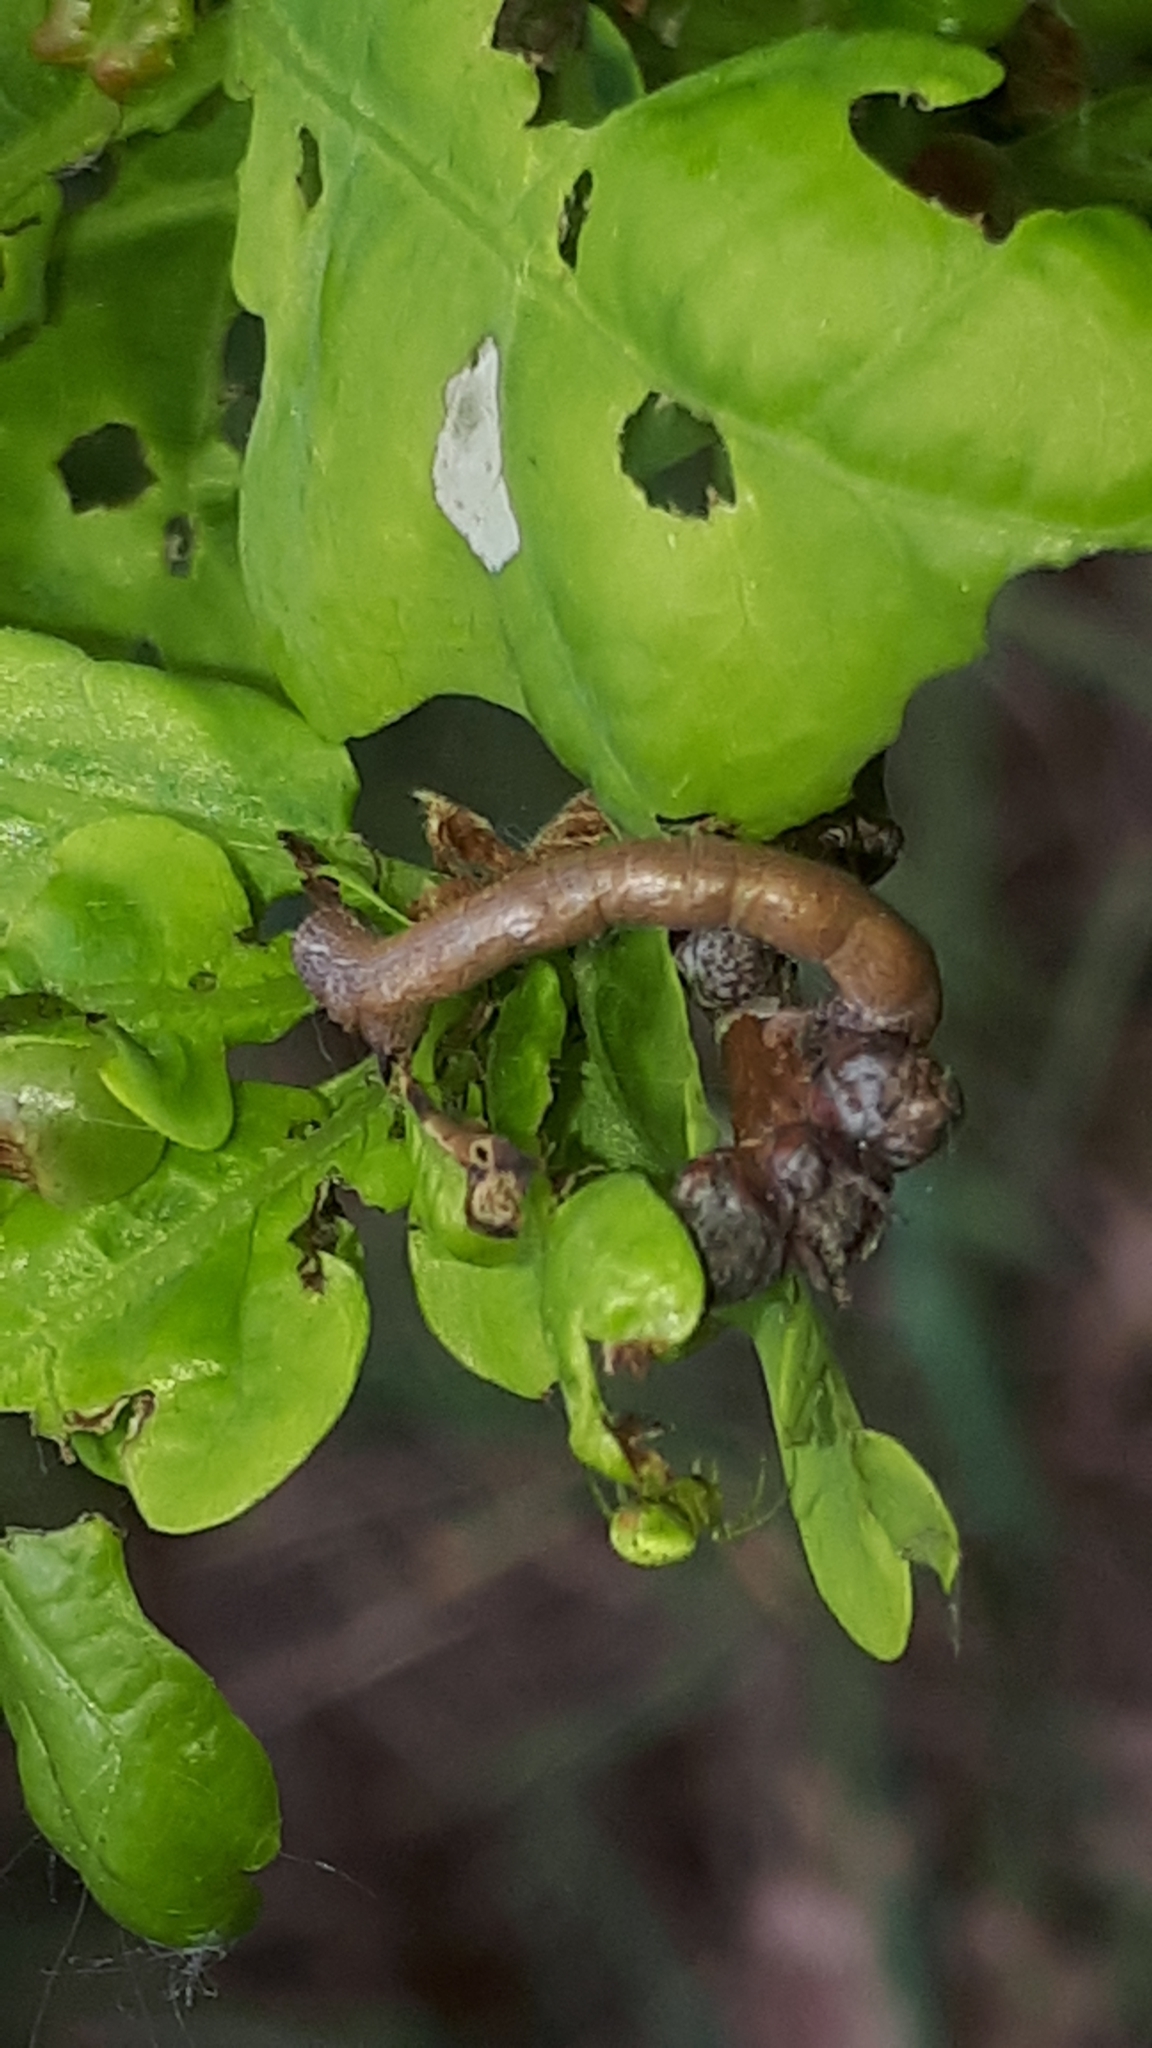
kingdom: Animalia
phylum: Arthropoda
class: Arachnida
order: Araneae
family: Araneidae
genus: Araniella
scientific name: Araniella
